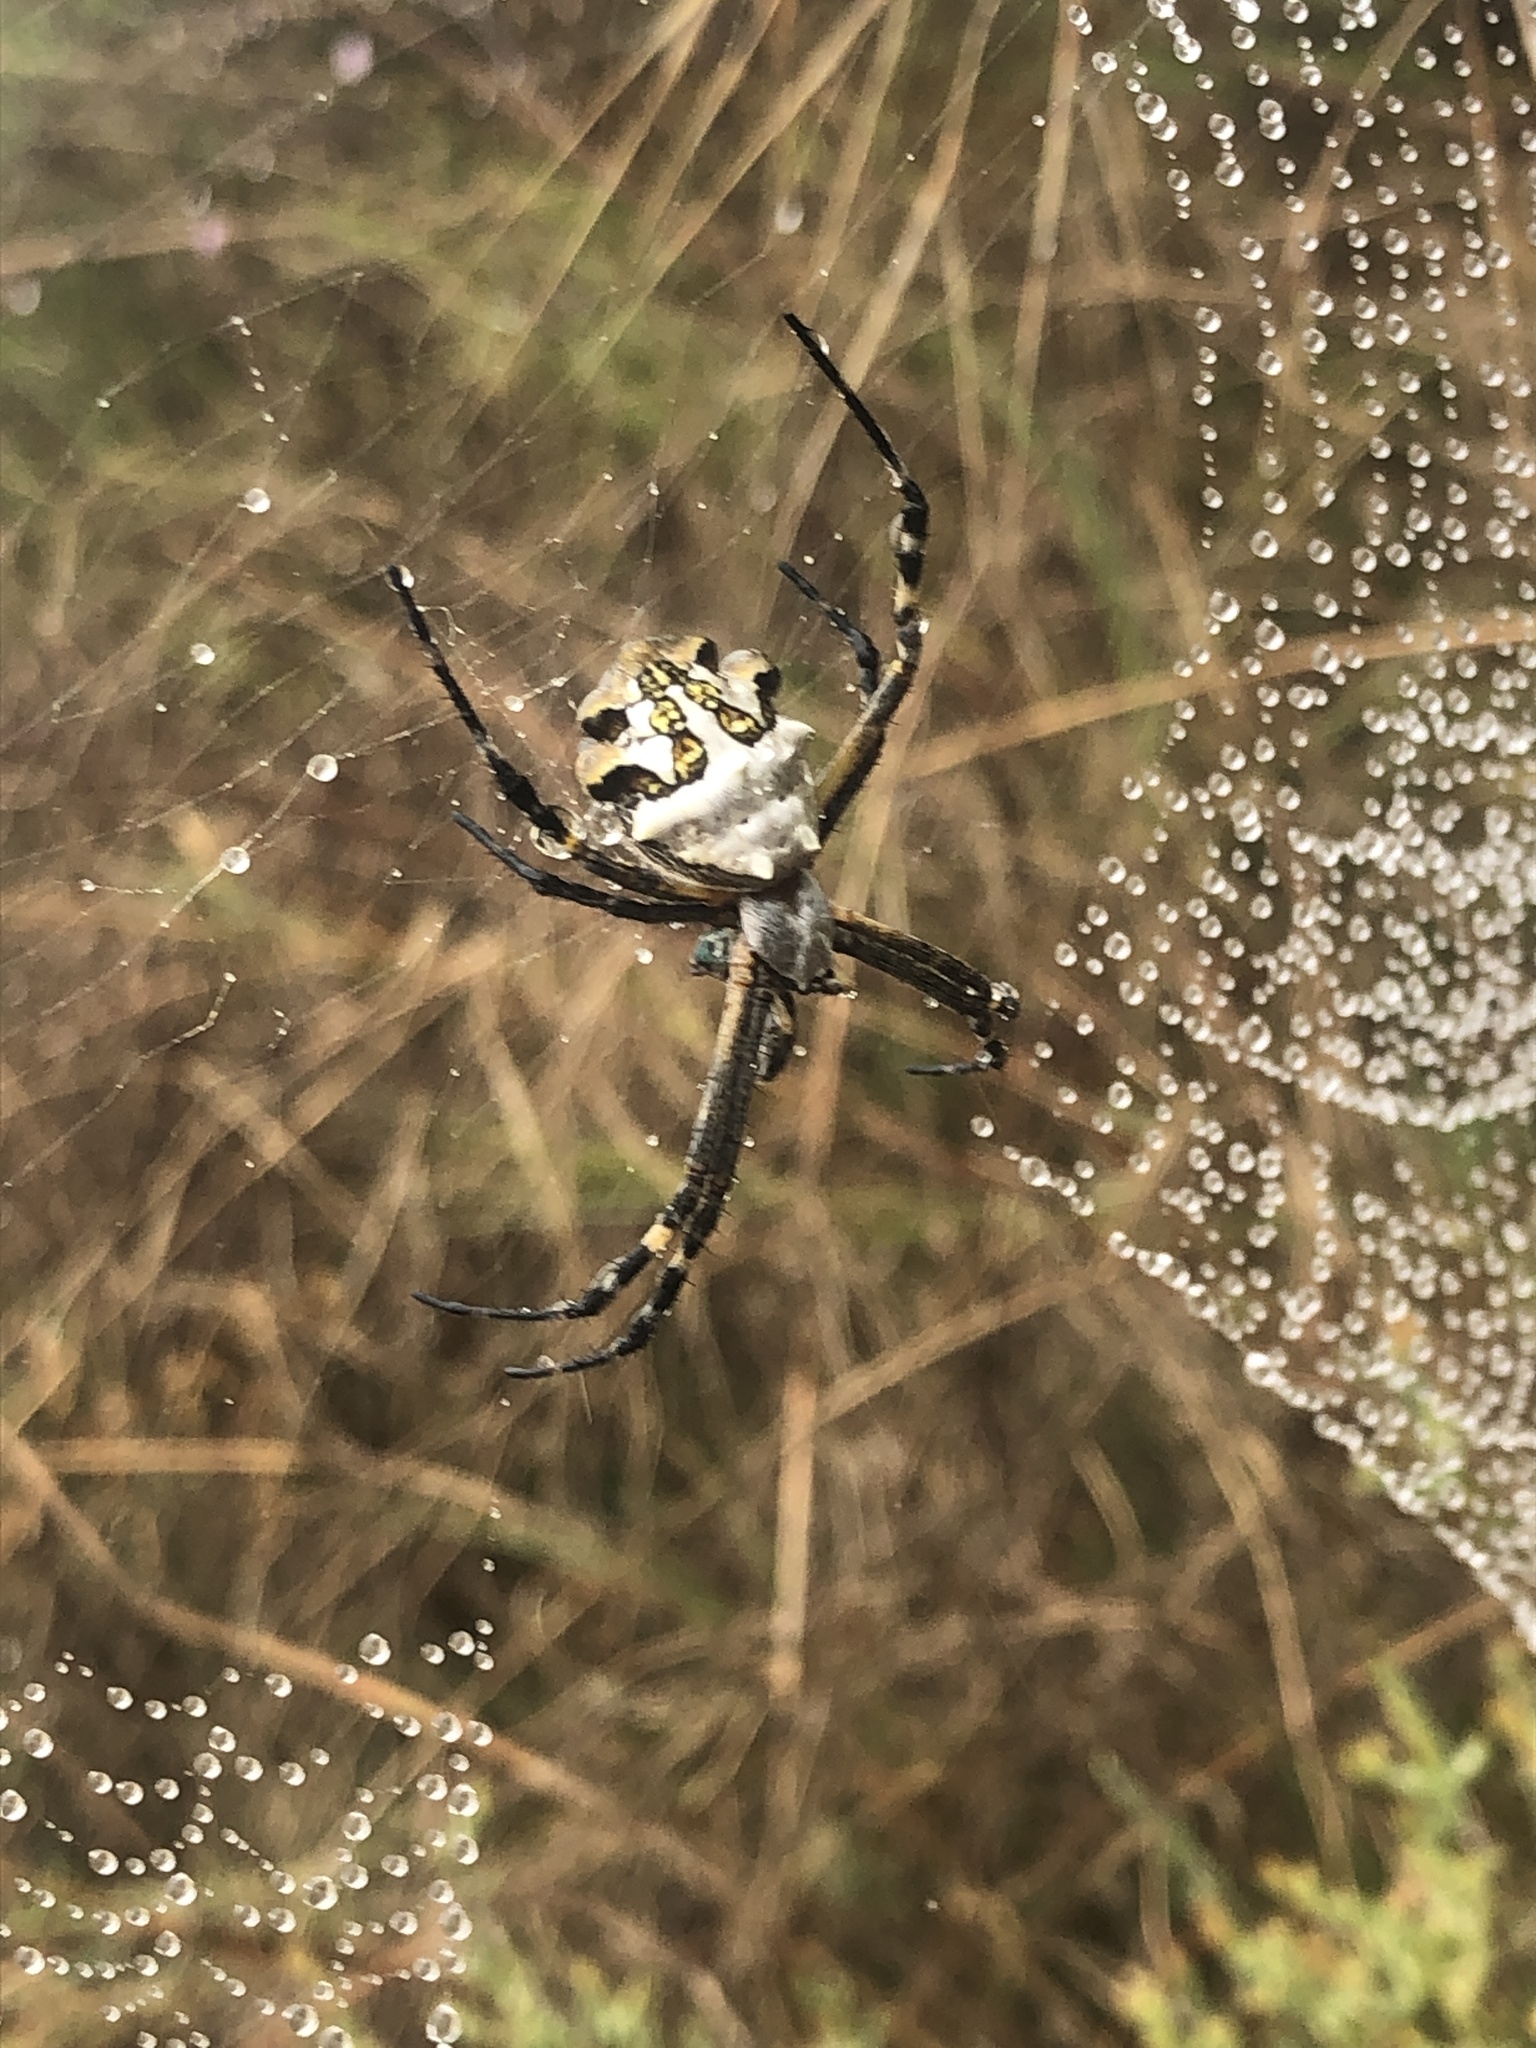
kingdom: Animalia
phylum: Arthropoda
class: Arachnida
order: Araneae
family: Araneidae
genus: Argiope
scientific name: Argiope argentata
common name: Orb weavers
